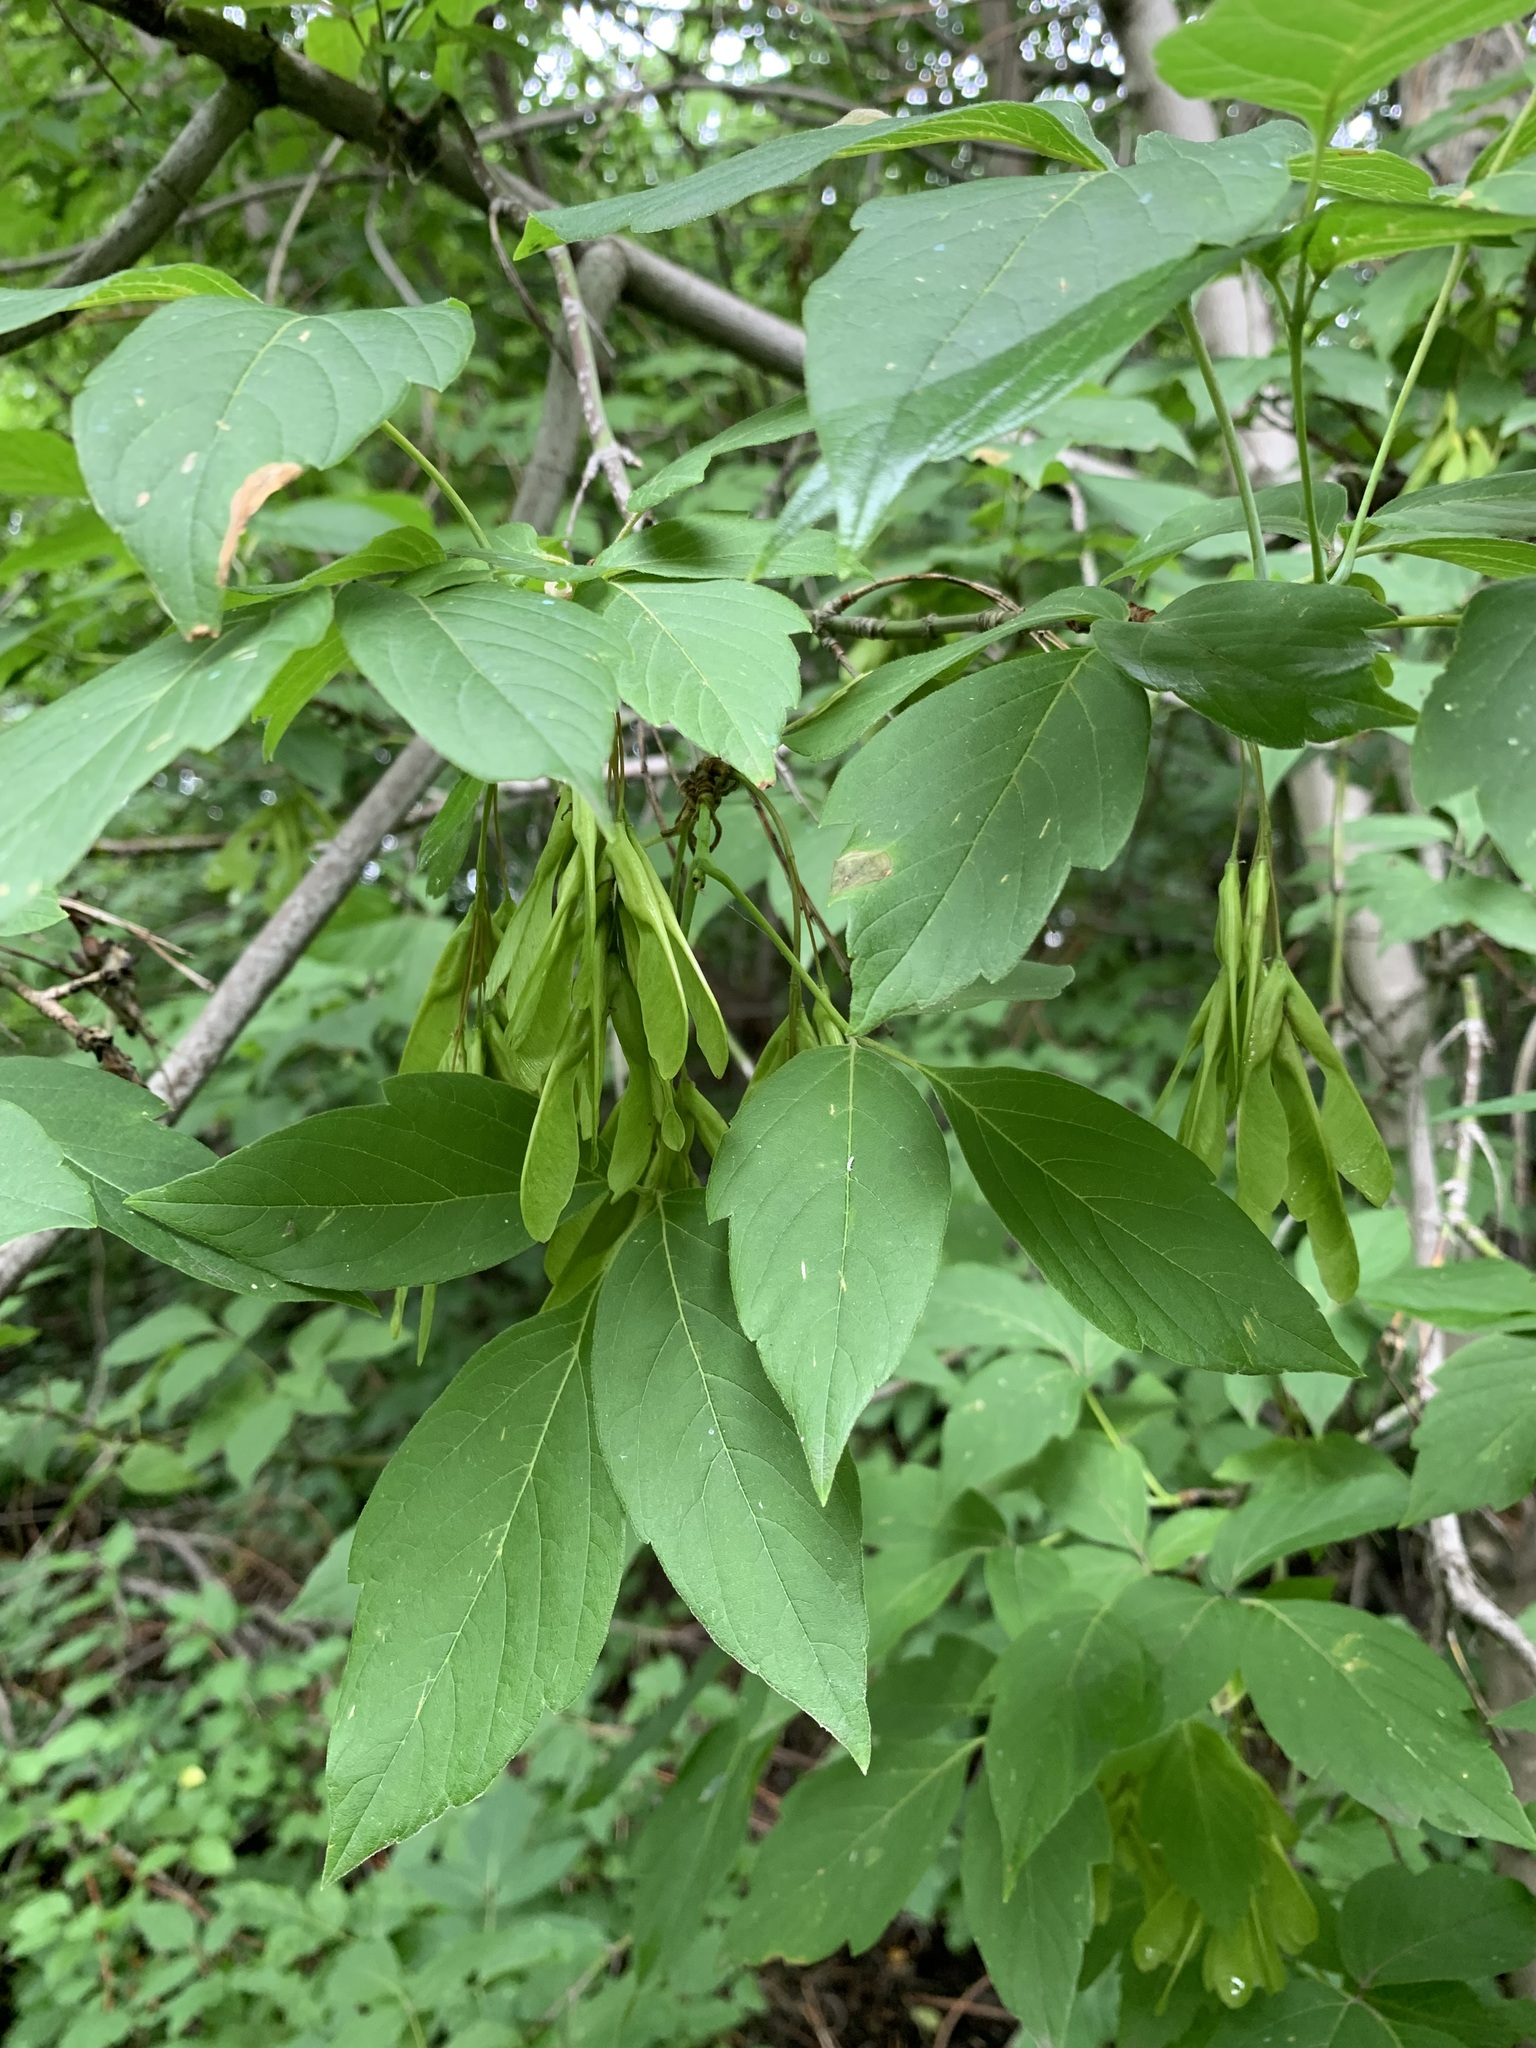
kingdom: Plantae
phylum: Tracheophyta
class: Magnoliopsida
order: Sapindales
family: Sapindaceae
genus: Acer
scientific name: Acer negundo
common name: Ashleaf maple
